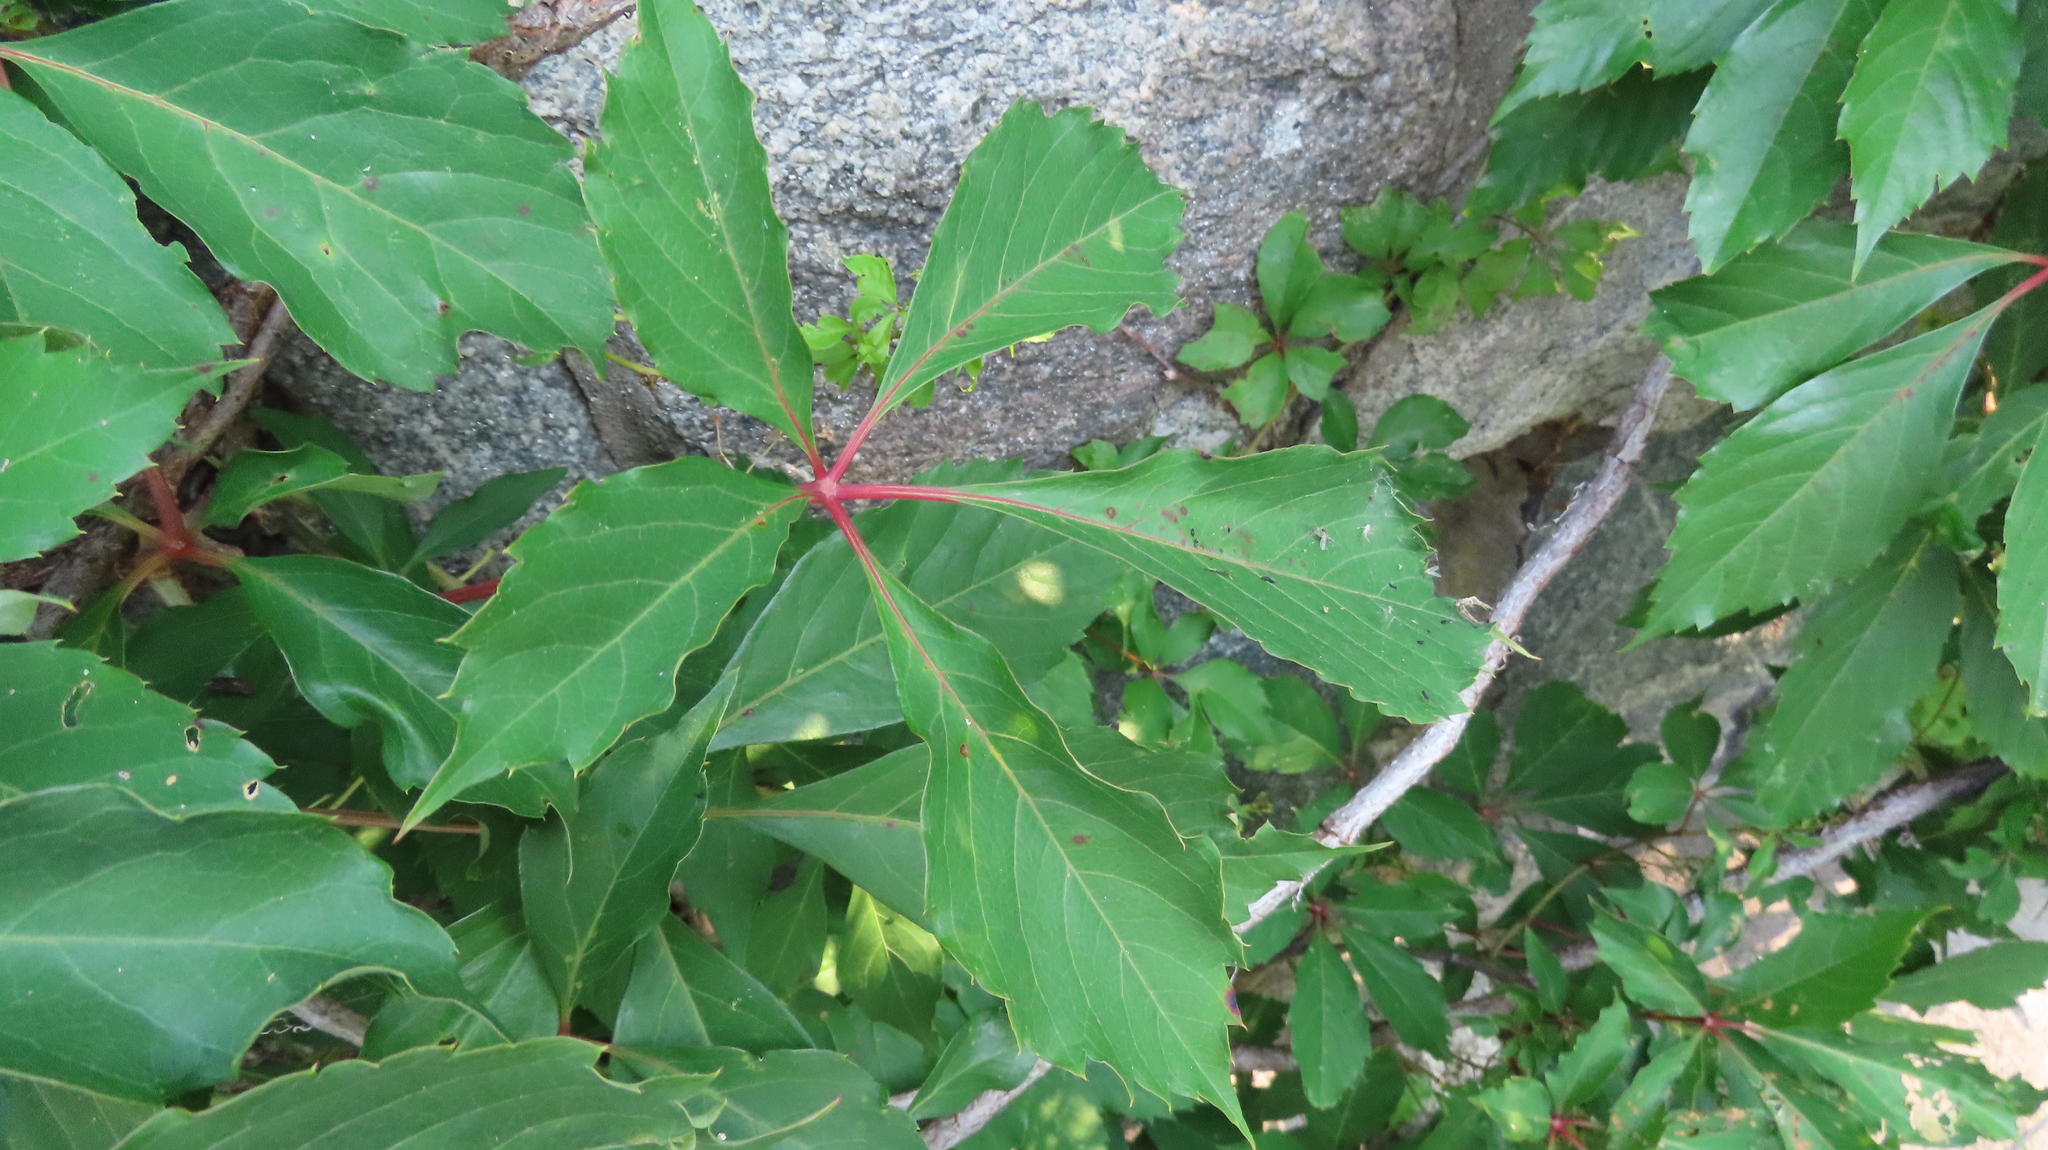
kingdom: Plantae
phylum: Tracheophyta
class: Magnoliopsida
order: Vitales
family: Vitaceae
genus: Parthenocissus
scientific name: Parthenocissus quinquefolia
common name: Virginia-creeper
